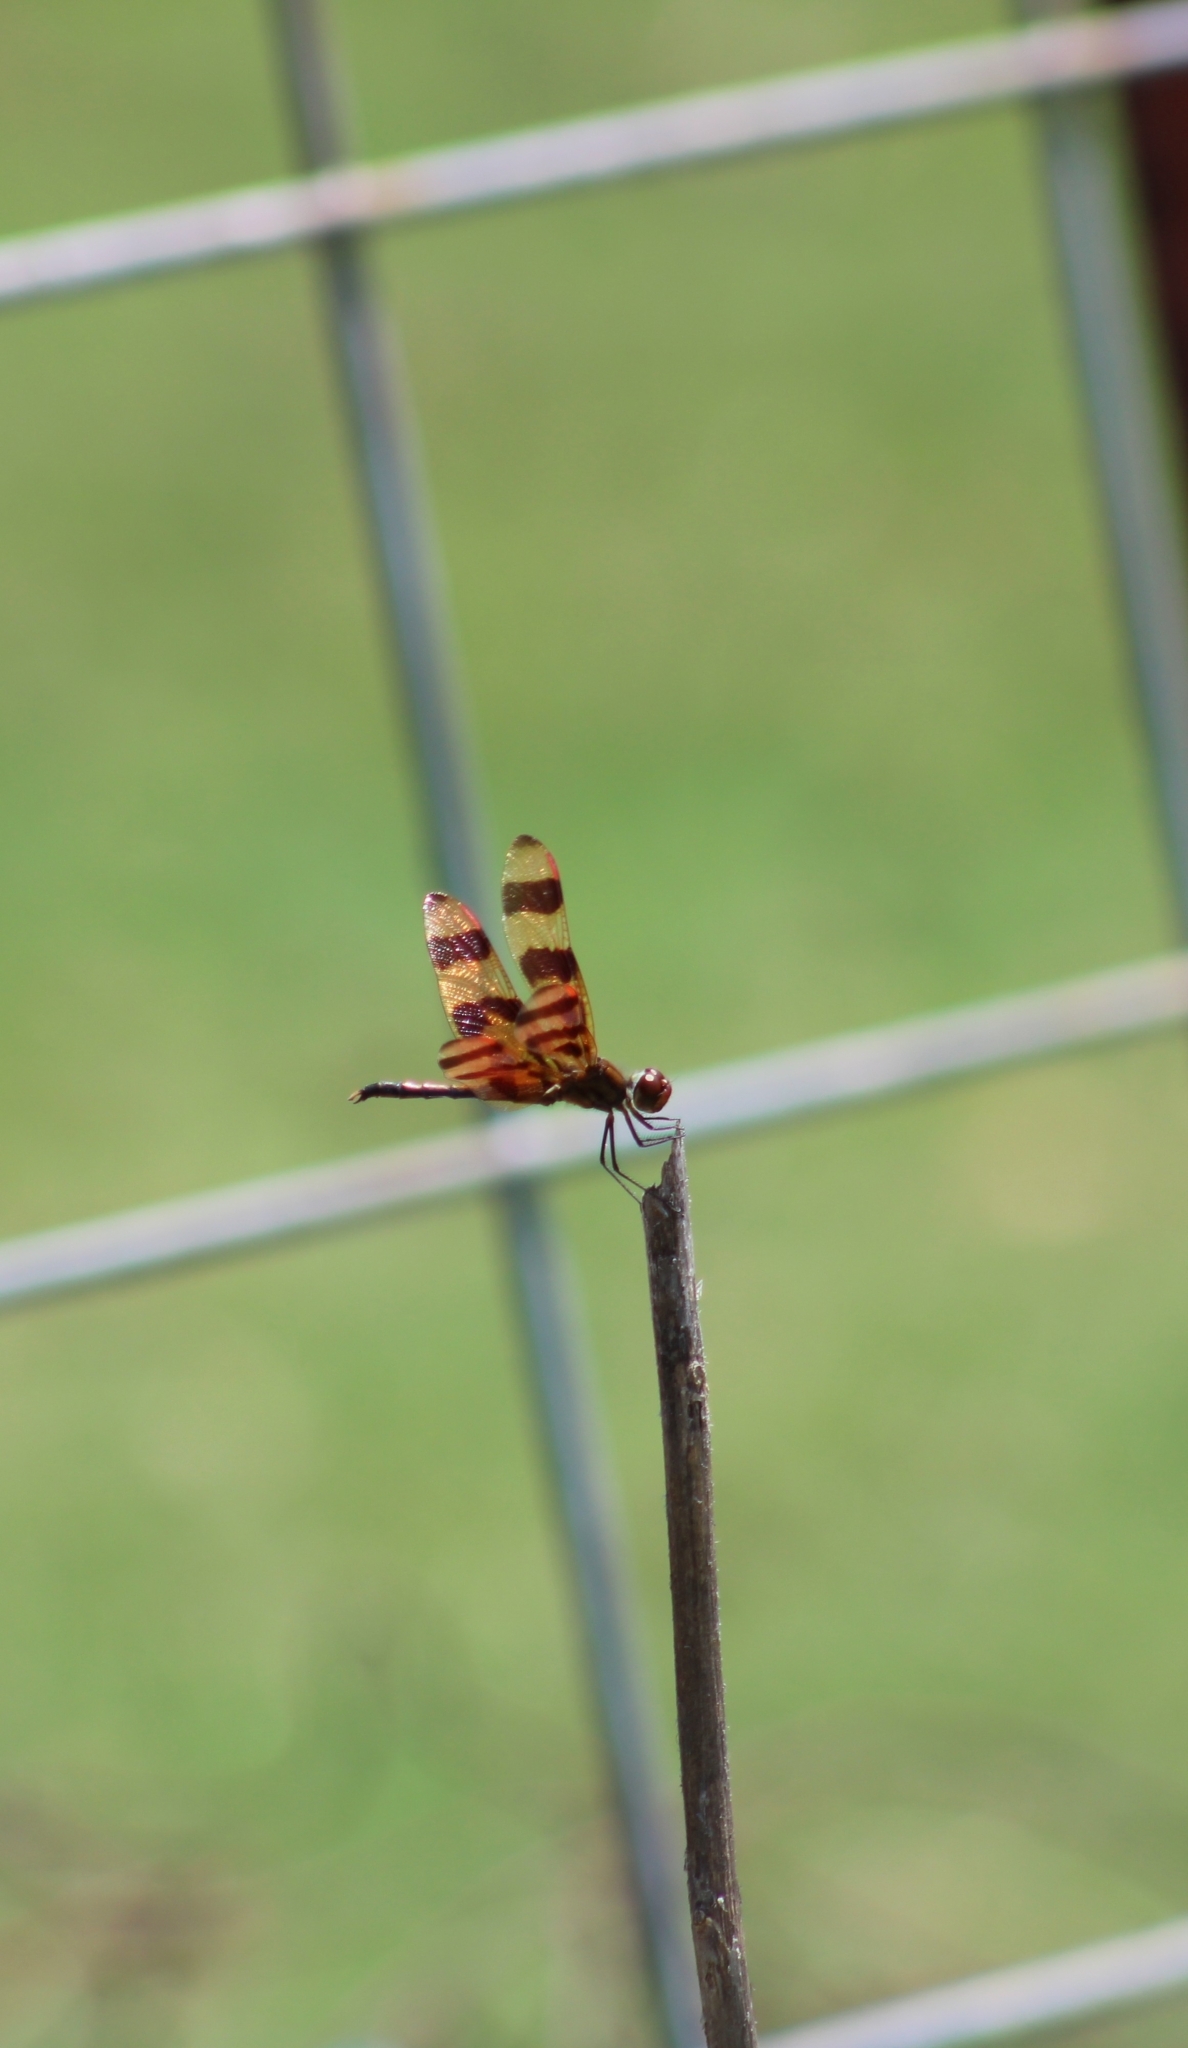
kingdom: Animalia
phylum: Arthropoda
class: Insecta
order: Odonata
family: Libellulidae
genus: Celithemis
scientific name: Celithemis eponina
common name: Halloween pennant
